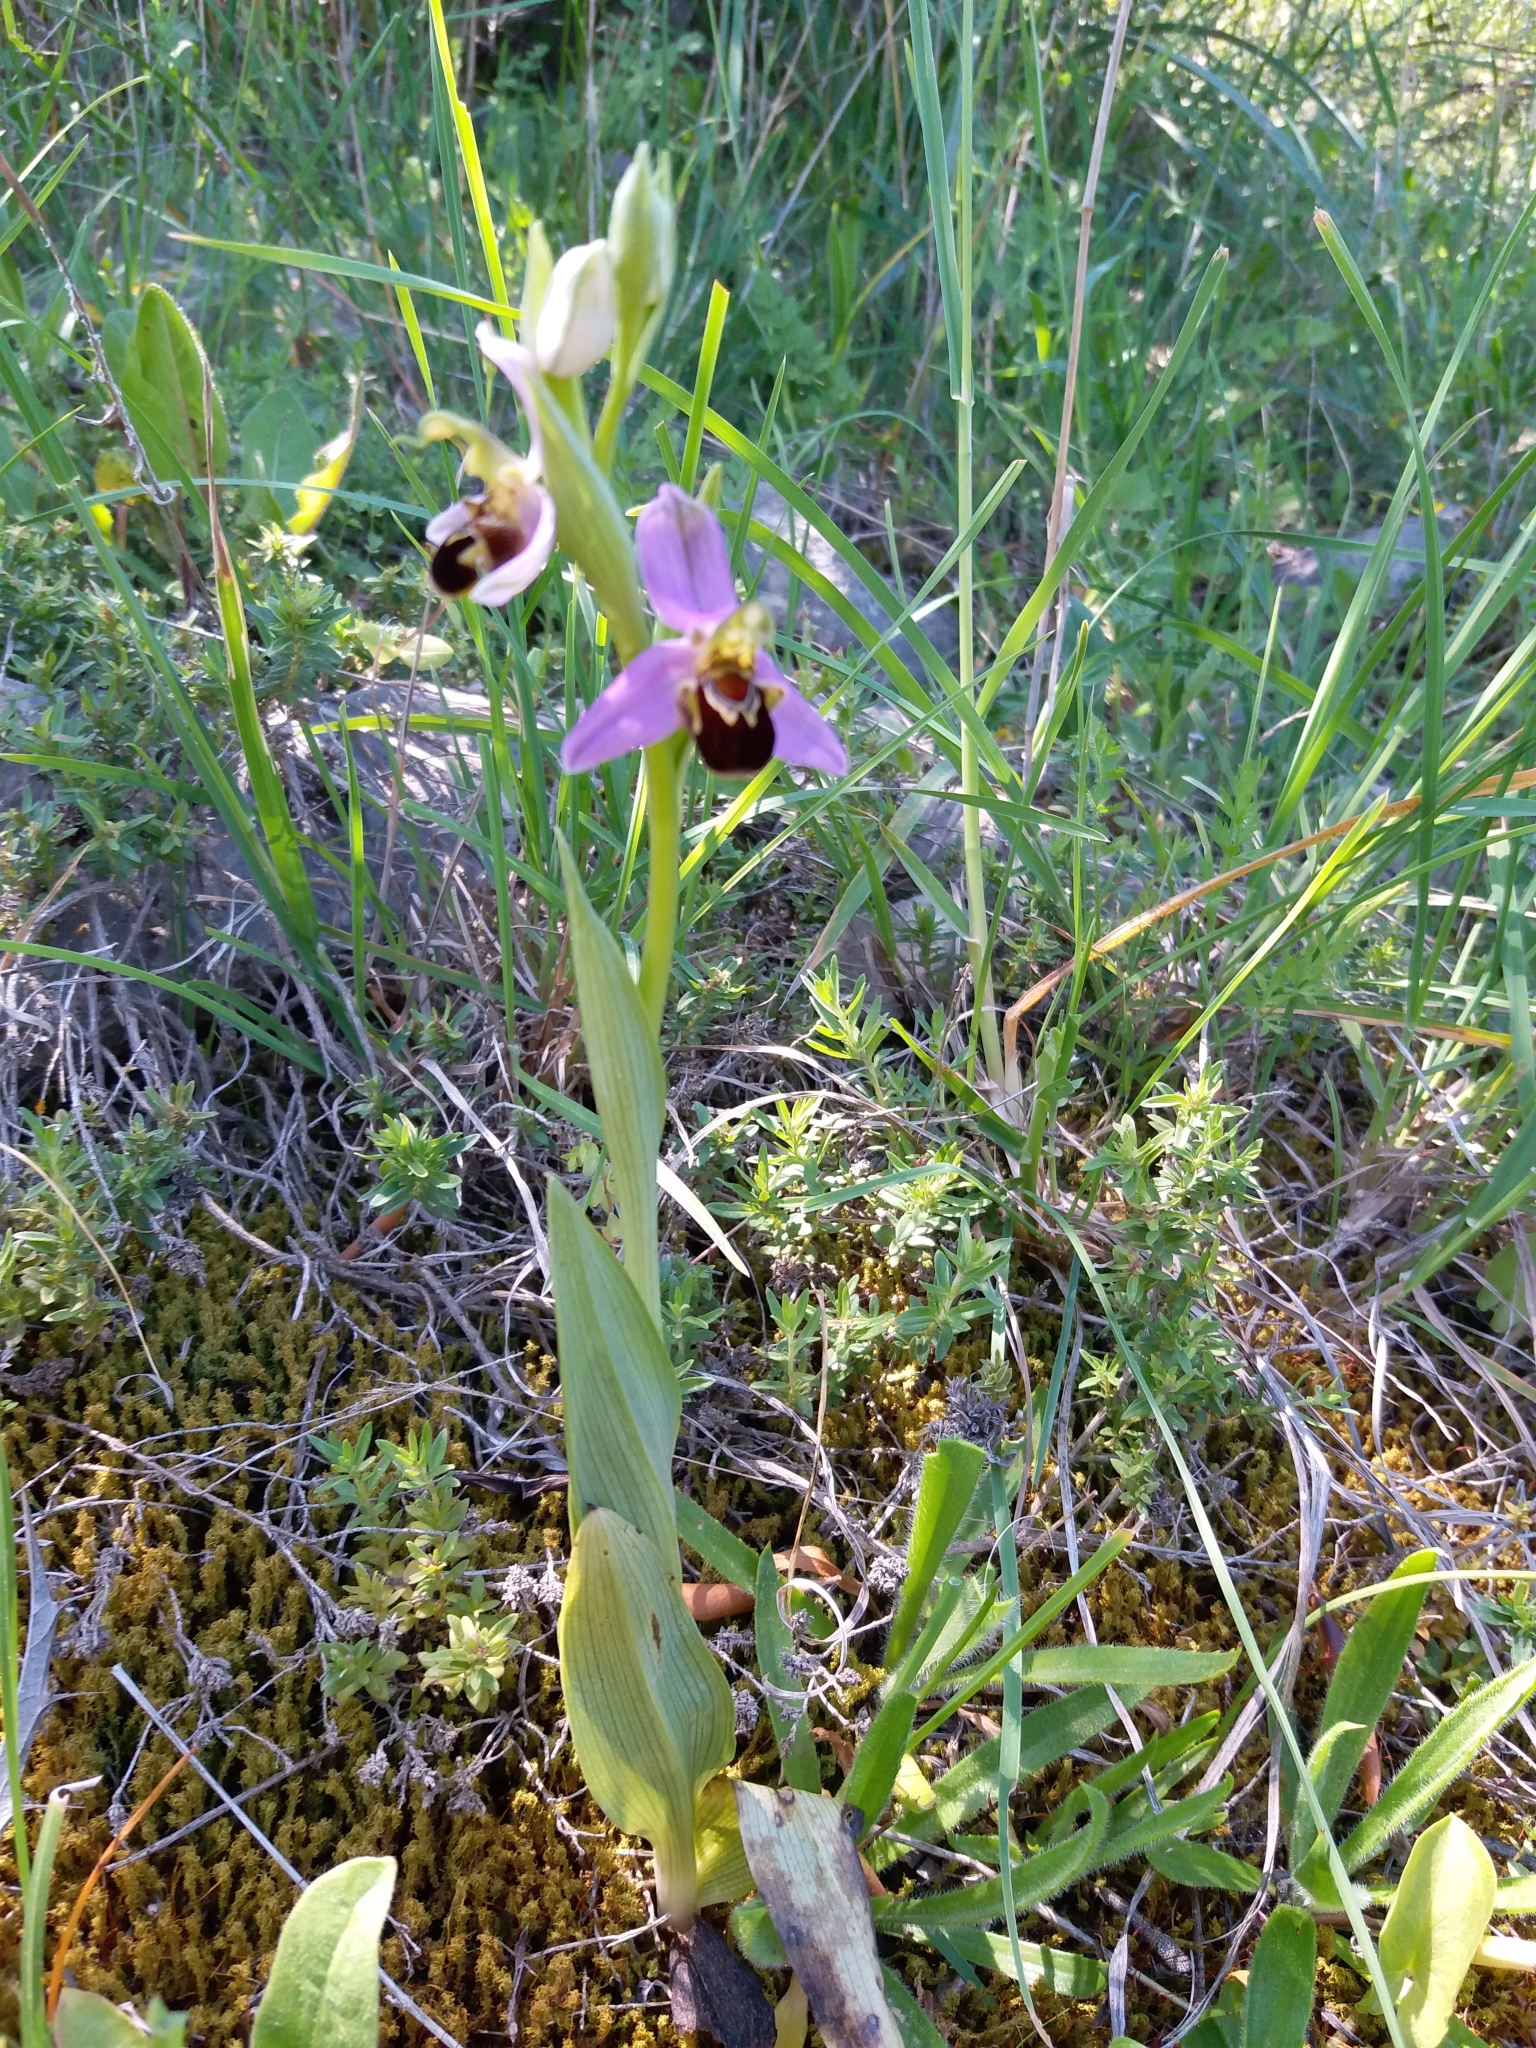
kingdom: Plantae
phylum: Tracheophyta
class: Liliopsida
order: Asparagales
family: Orchidaceae
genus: Ophrys
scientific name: Ophrys apifera
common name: Bee orchid
